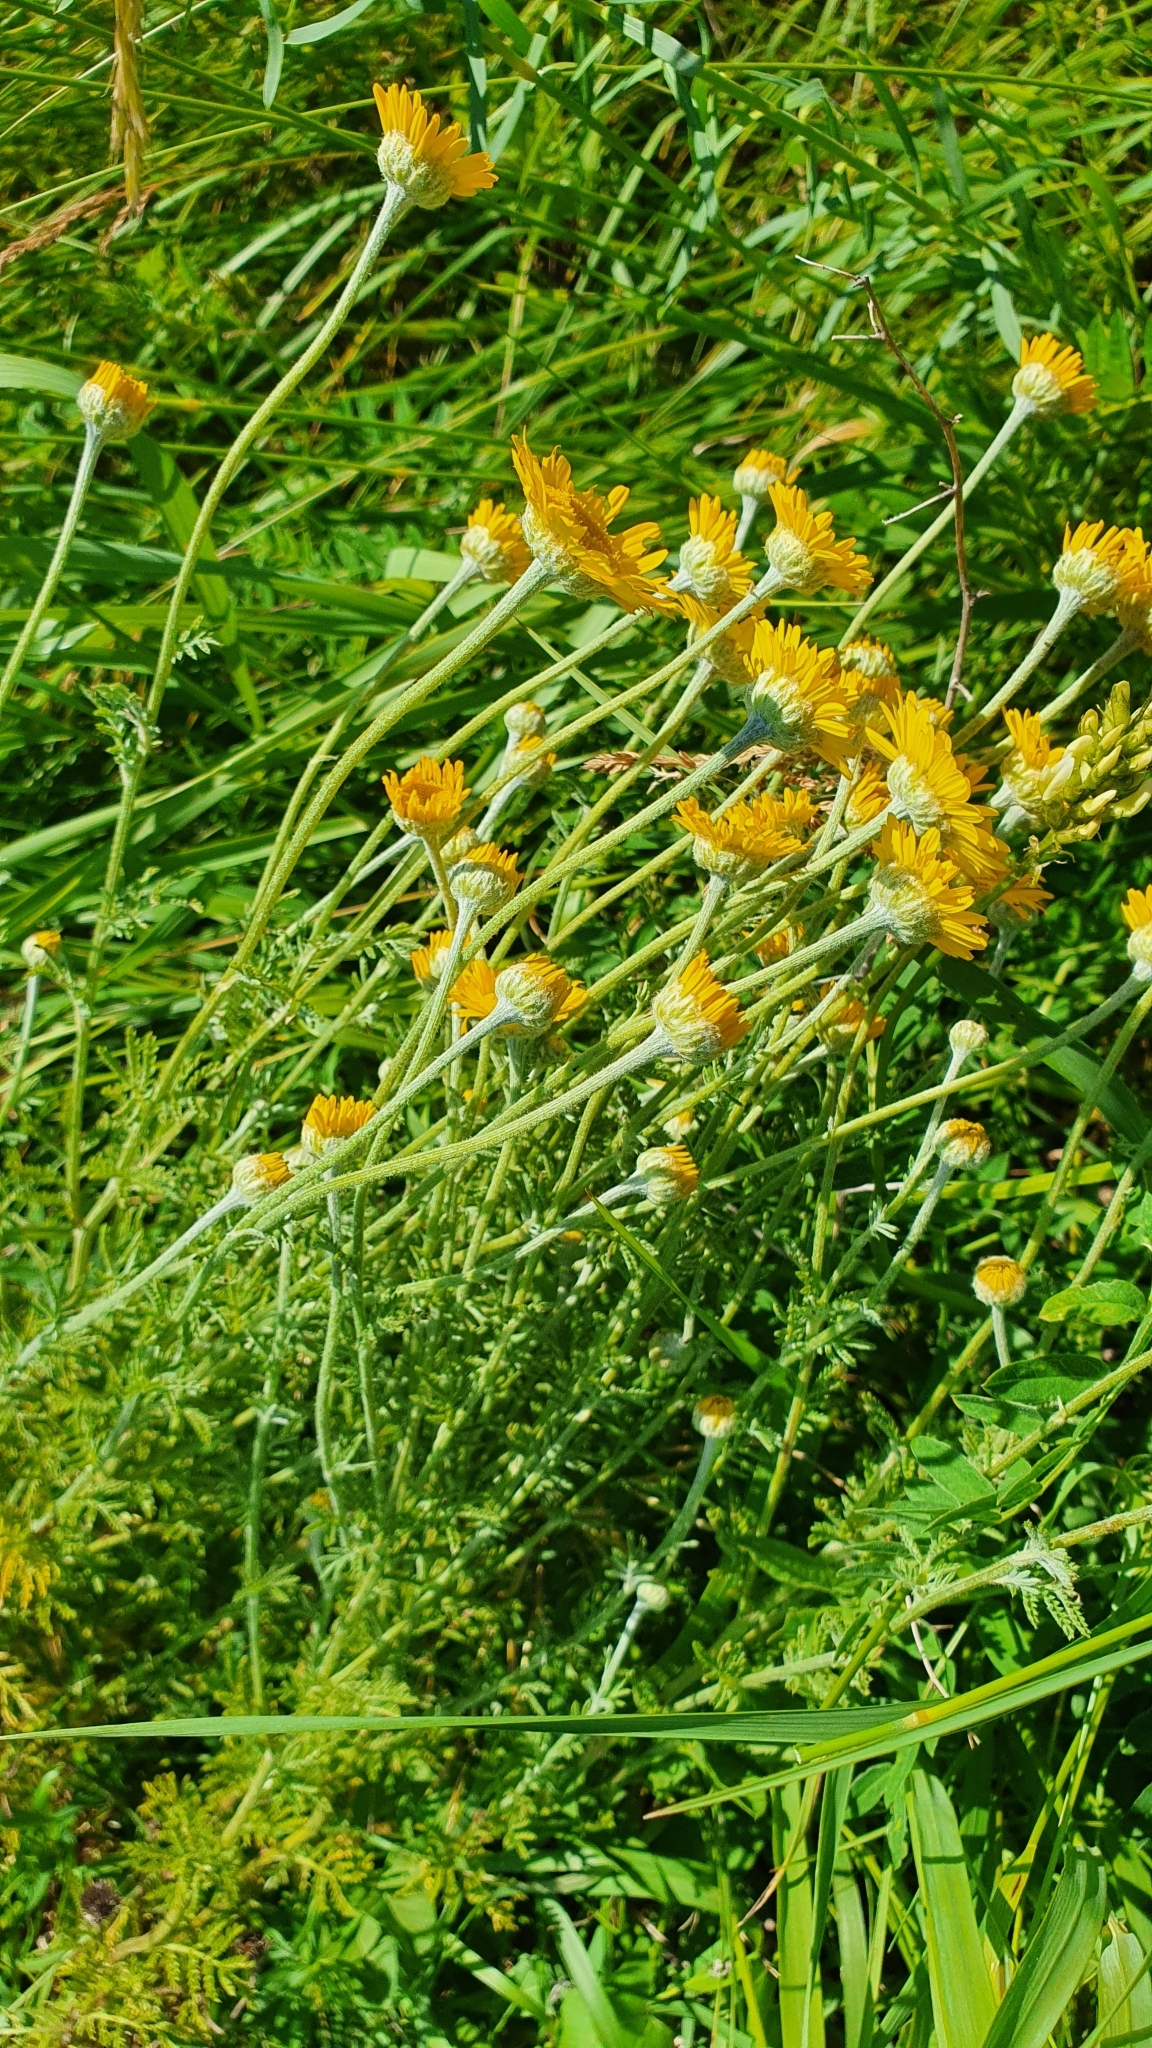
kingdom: Plantae
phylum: Tracheophyta
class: Magnoliopsida
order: Asterales
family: Asteraceae
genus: Cota
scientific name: Cota tinctoria
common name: Golden chamomile
